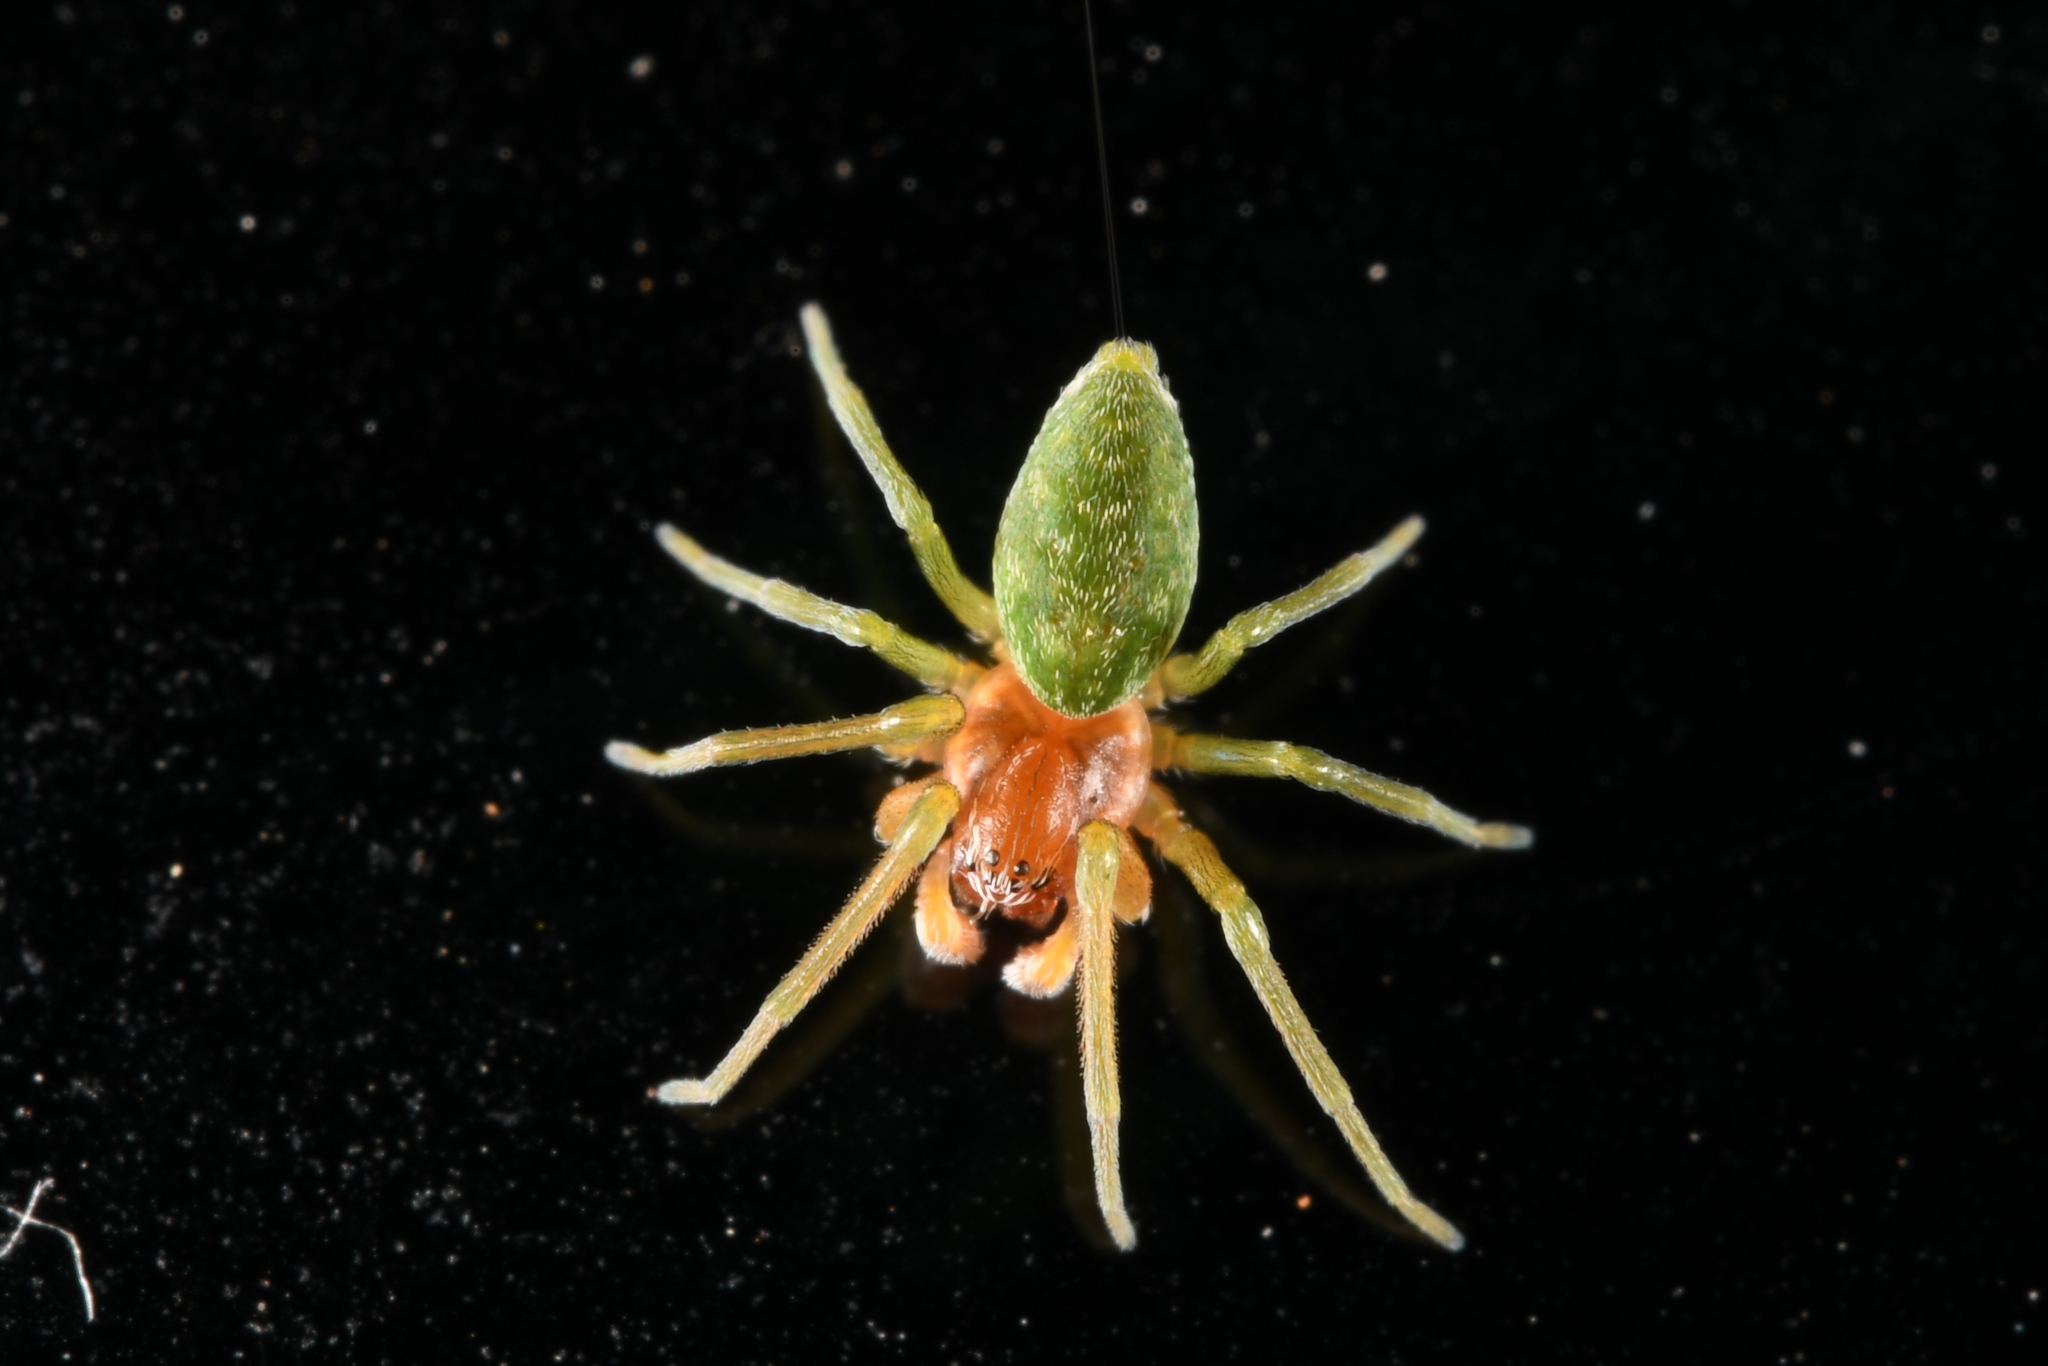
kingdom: Animalia
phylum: Arthropoda
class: Arachnida
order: Araneae
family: Dictynidae
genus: Nigma
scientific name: Nigma walckenaeri
